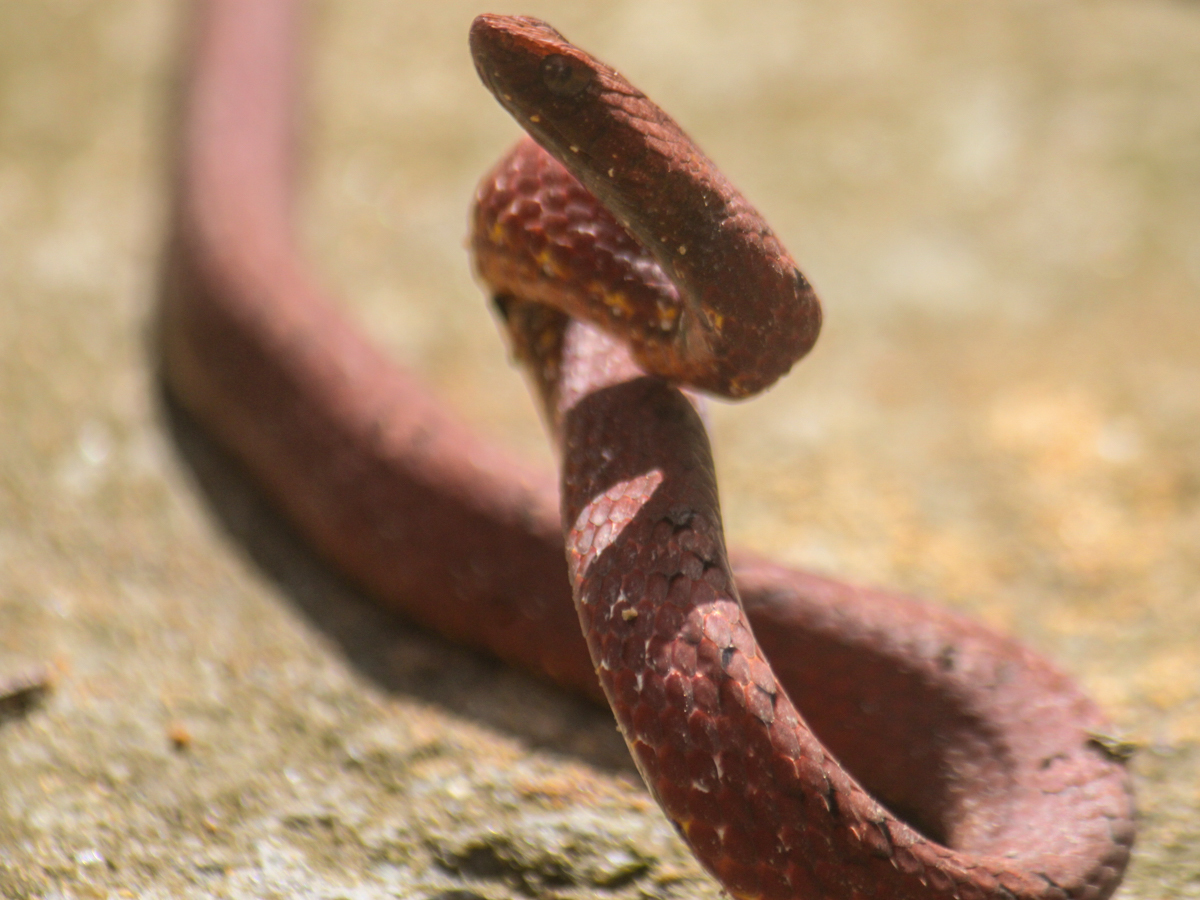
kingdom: Animalia
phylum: Chordata
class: Squamata
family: Pseudaspididae
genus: Psammodynastes
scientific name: Psammodynastes pulverulentus
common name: Common mock viper
